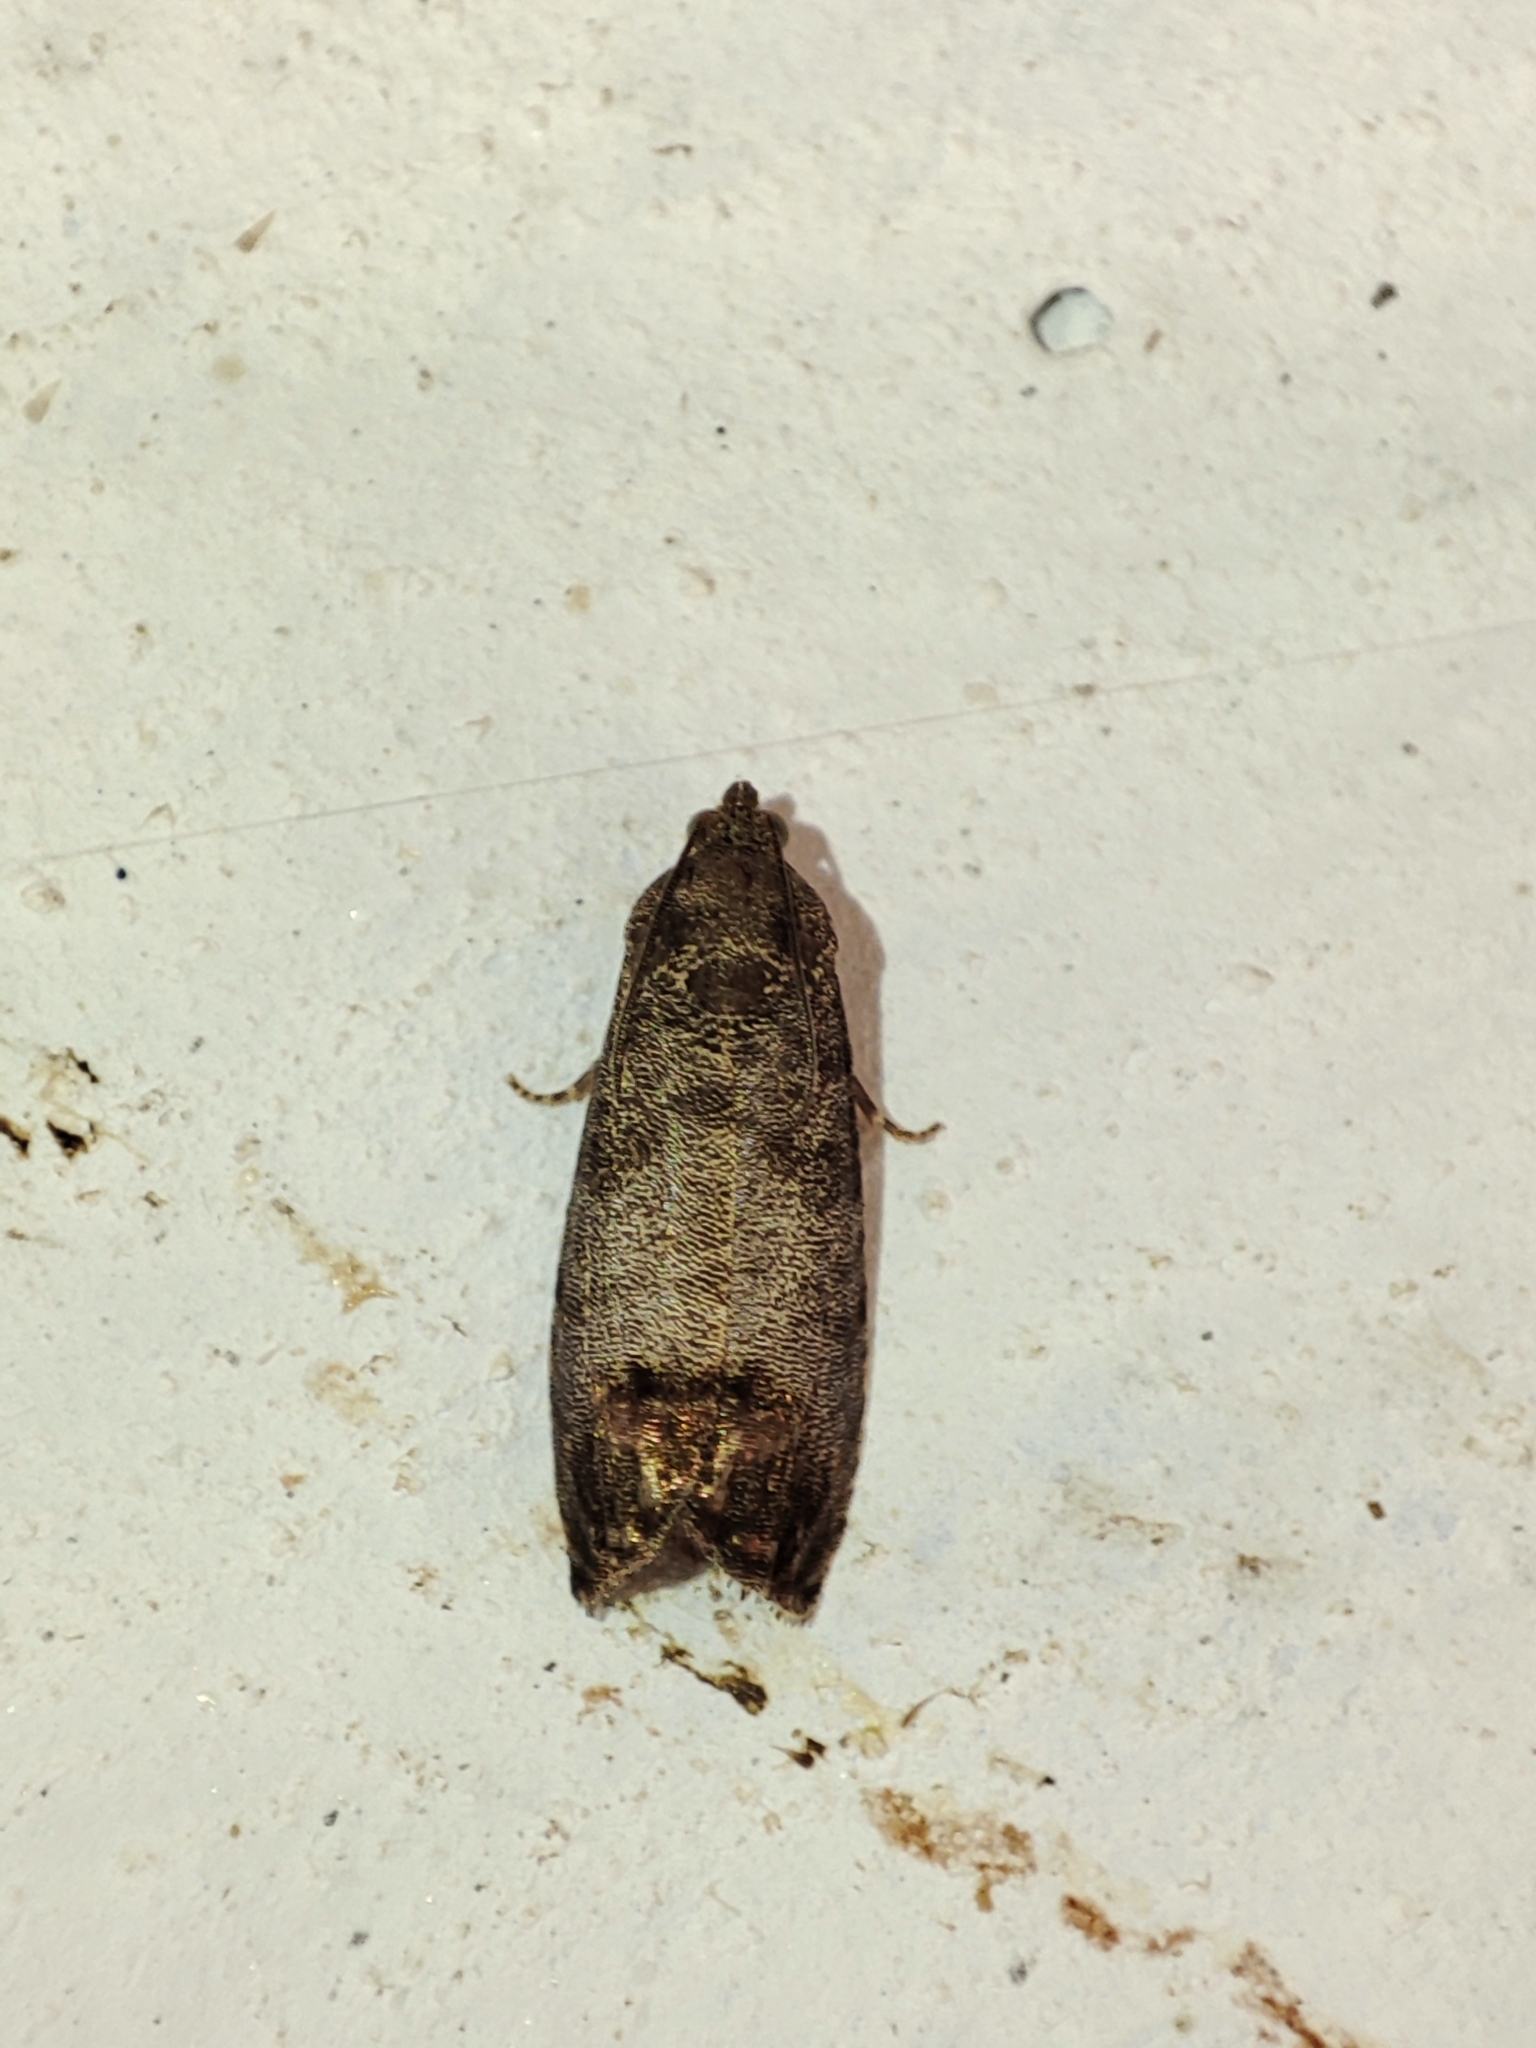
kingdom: Animalia
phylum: Arthropoda
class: Insecta
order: Lepidoptera
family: Tortricidae
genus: Cydia
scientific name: Cydia pomonella
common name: Codling moth
